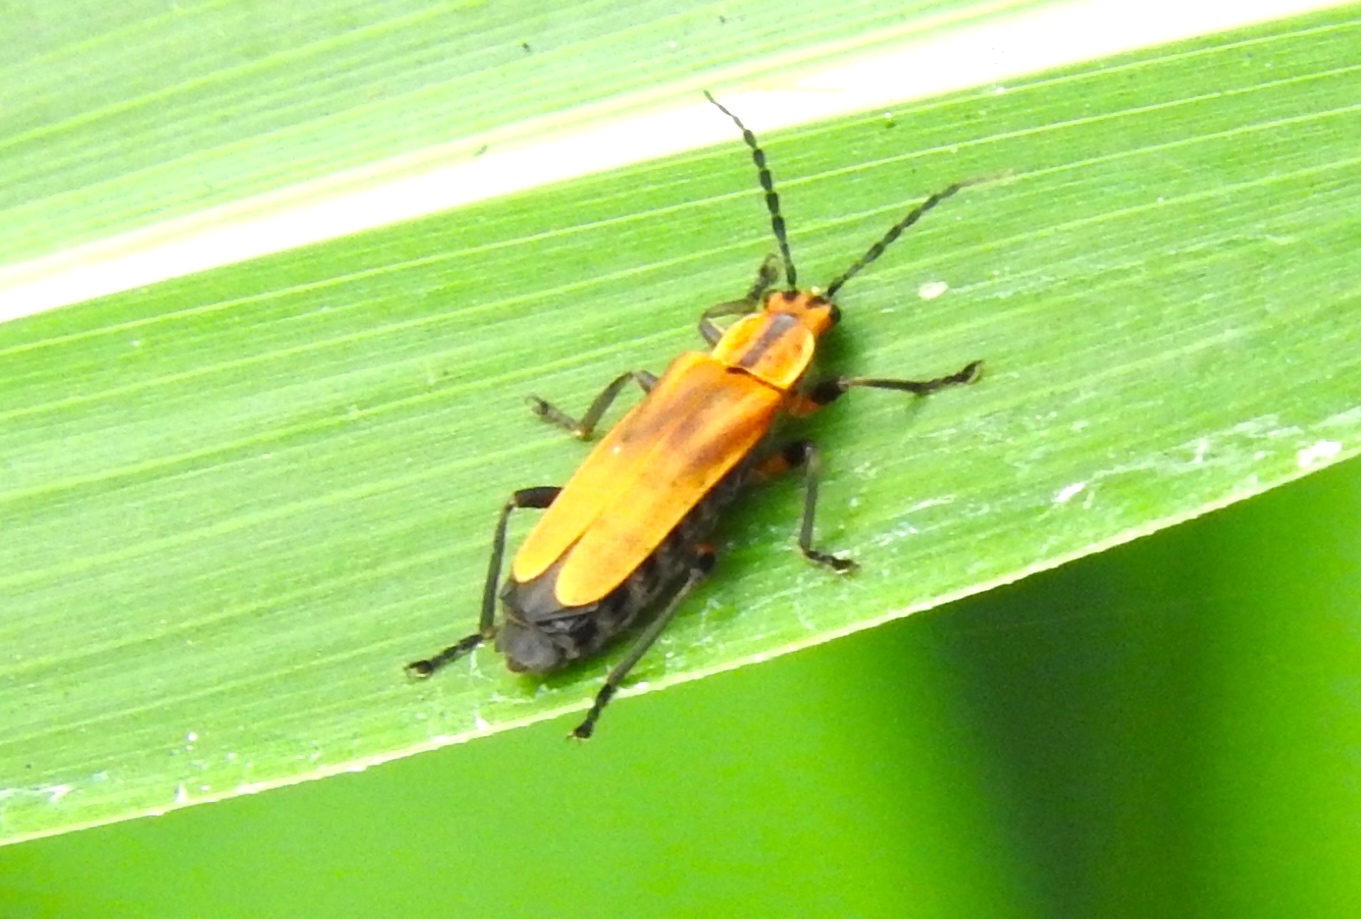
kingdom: Animalia
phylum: Arthropoda
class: Insecta
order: Coleoptera
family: Cantharidae
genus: Daiphron
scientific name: Daiphron proteum
